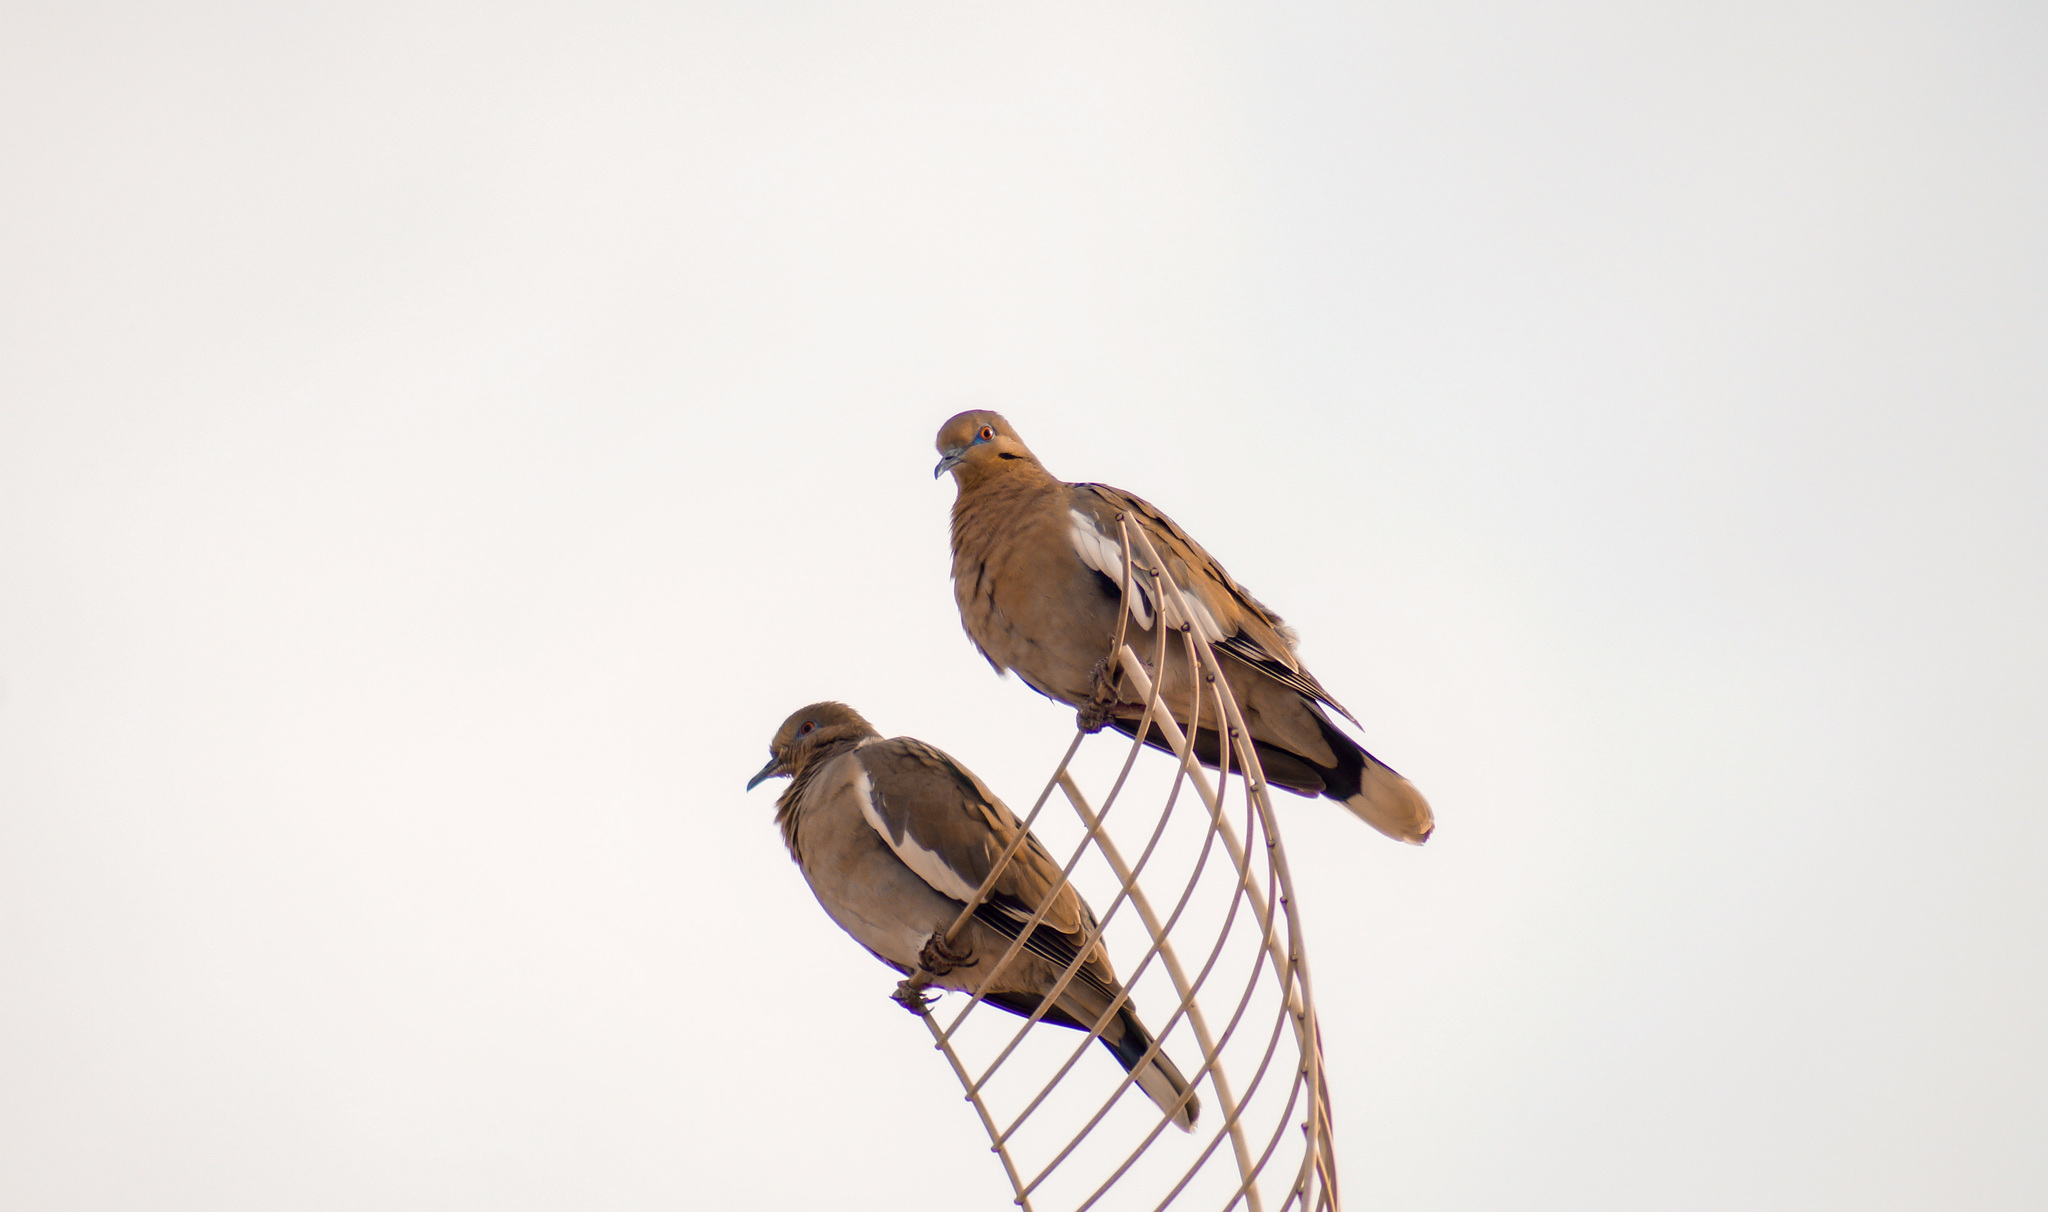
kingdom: Animalia
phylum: Chordata
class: Aves
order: Columbiformes
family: Columbidae
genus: Zenaida
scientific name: Zenaida asiatica
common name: White-winged dove
